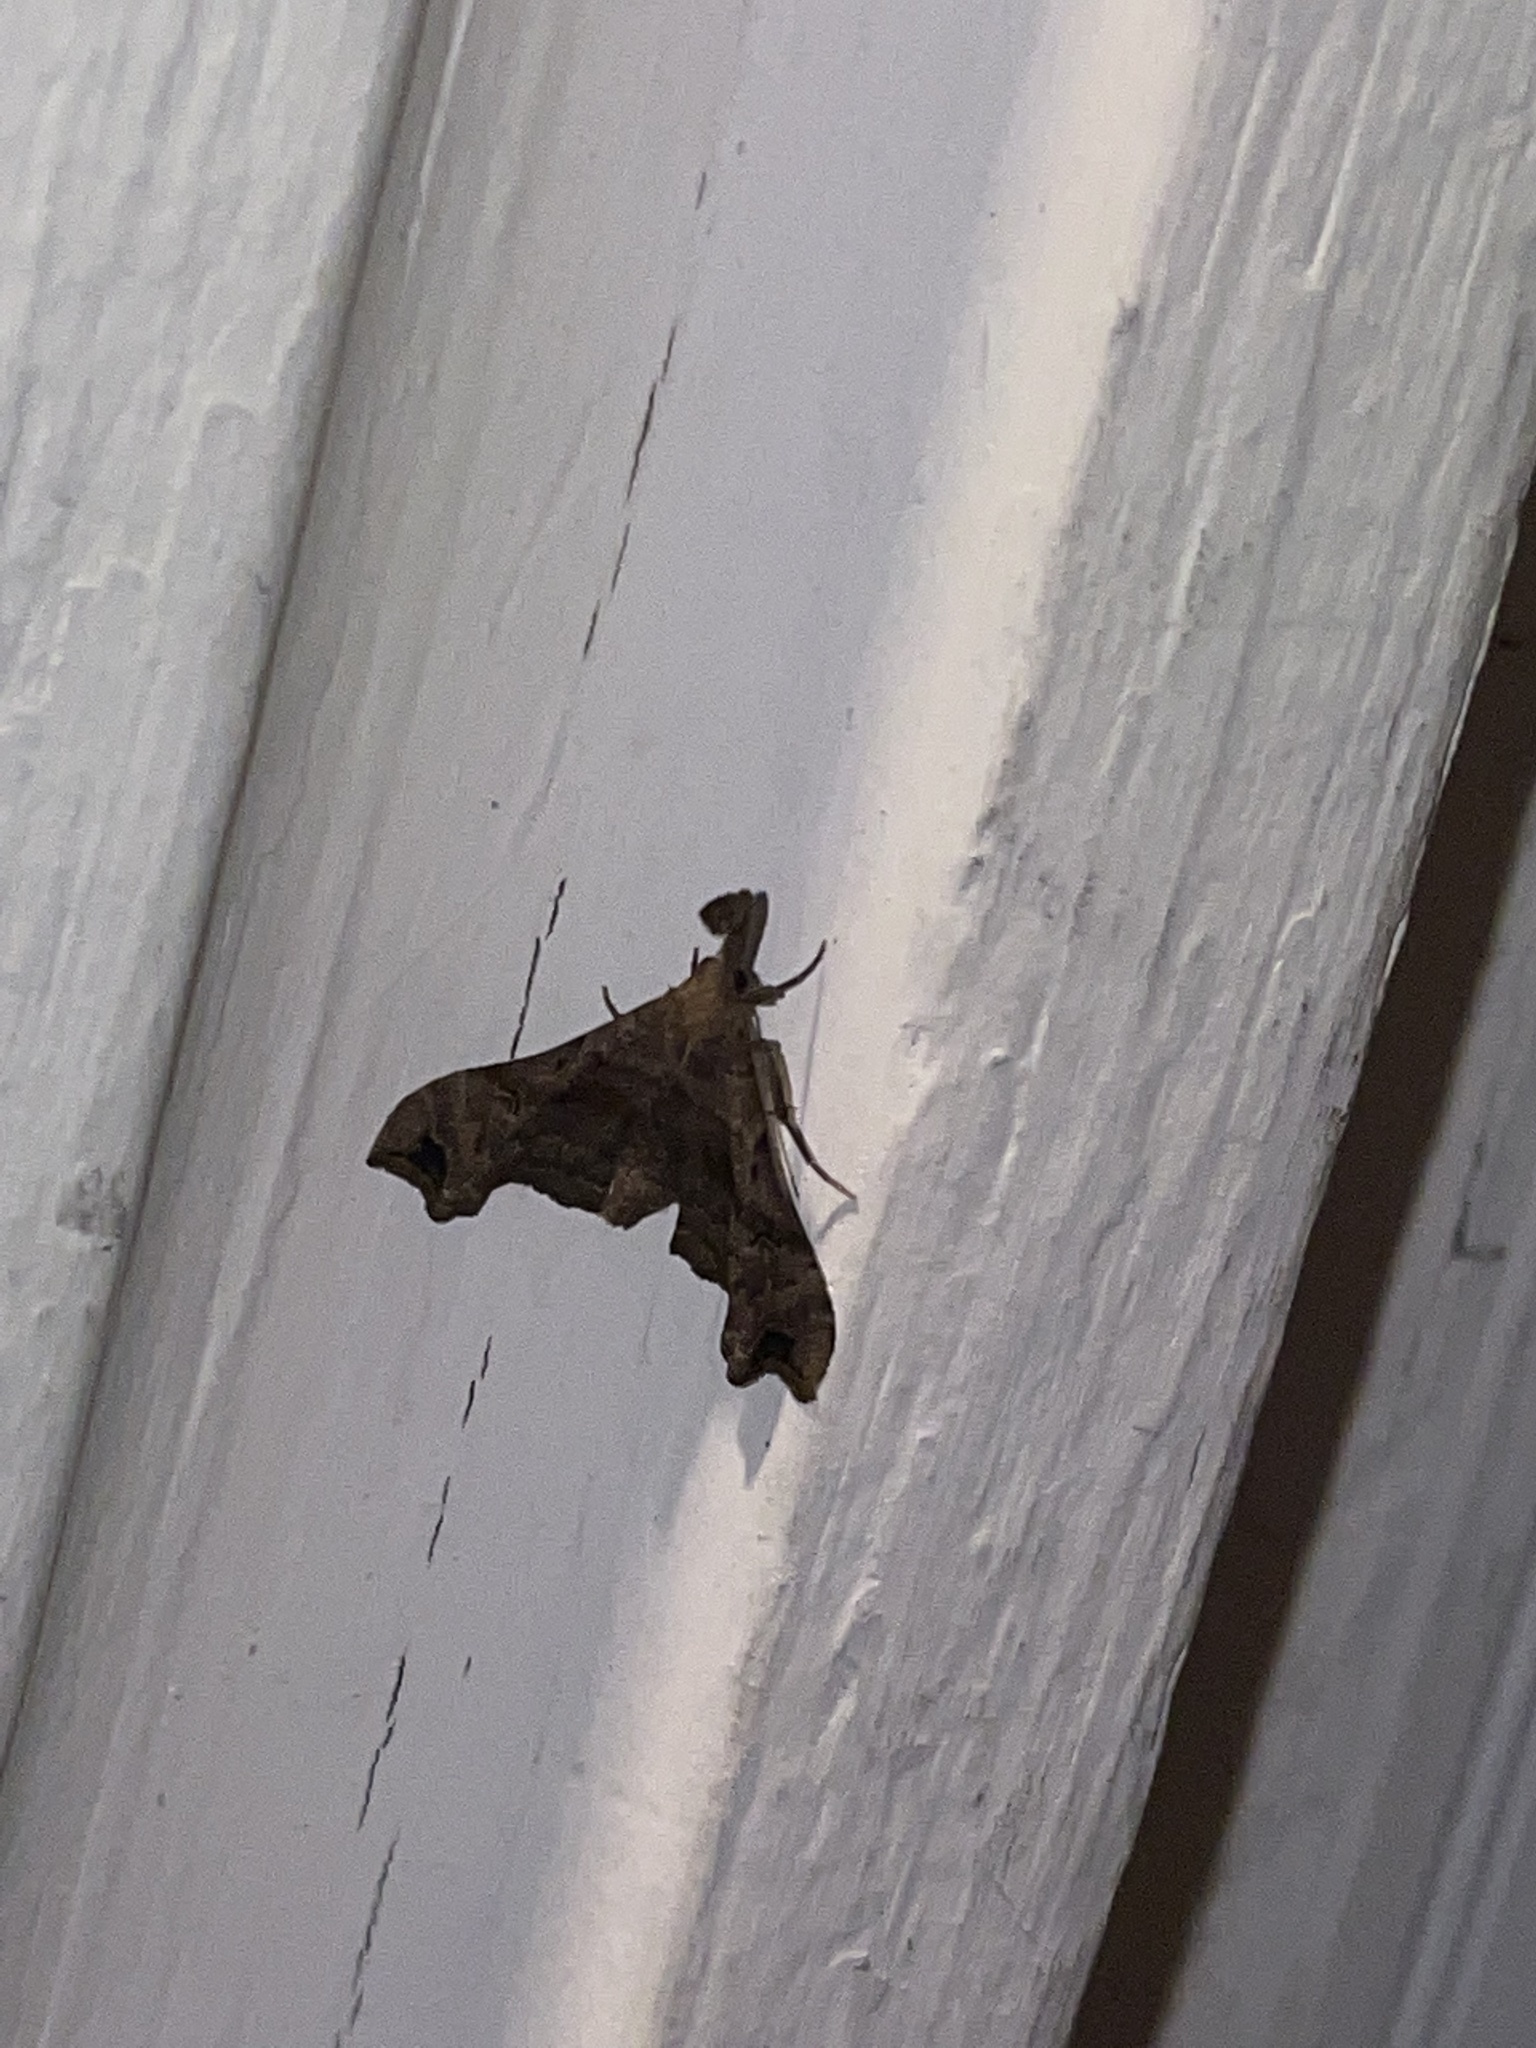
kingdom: Animalia
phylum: Arthropoda
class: Insecta
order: Lepidoptera
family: Erebidae
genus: Palthis
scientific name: Palthis asopialis
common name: Faint-spotted palthis moth
